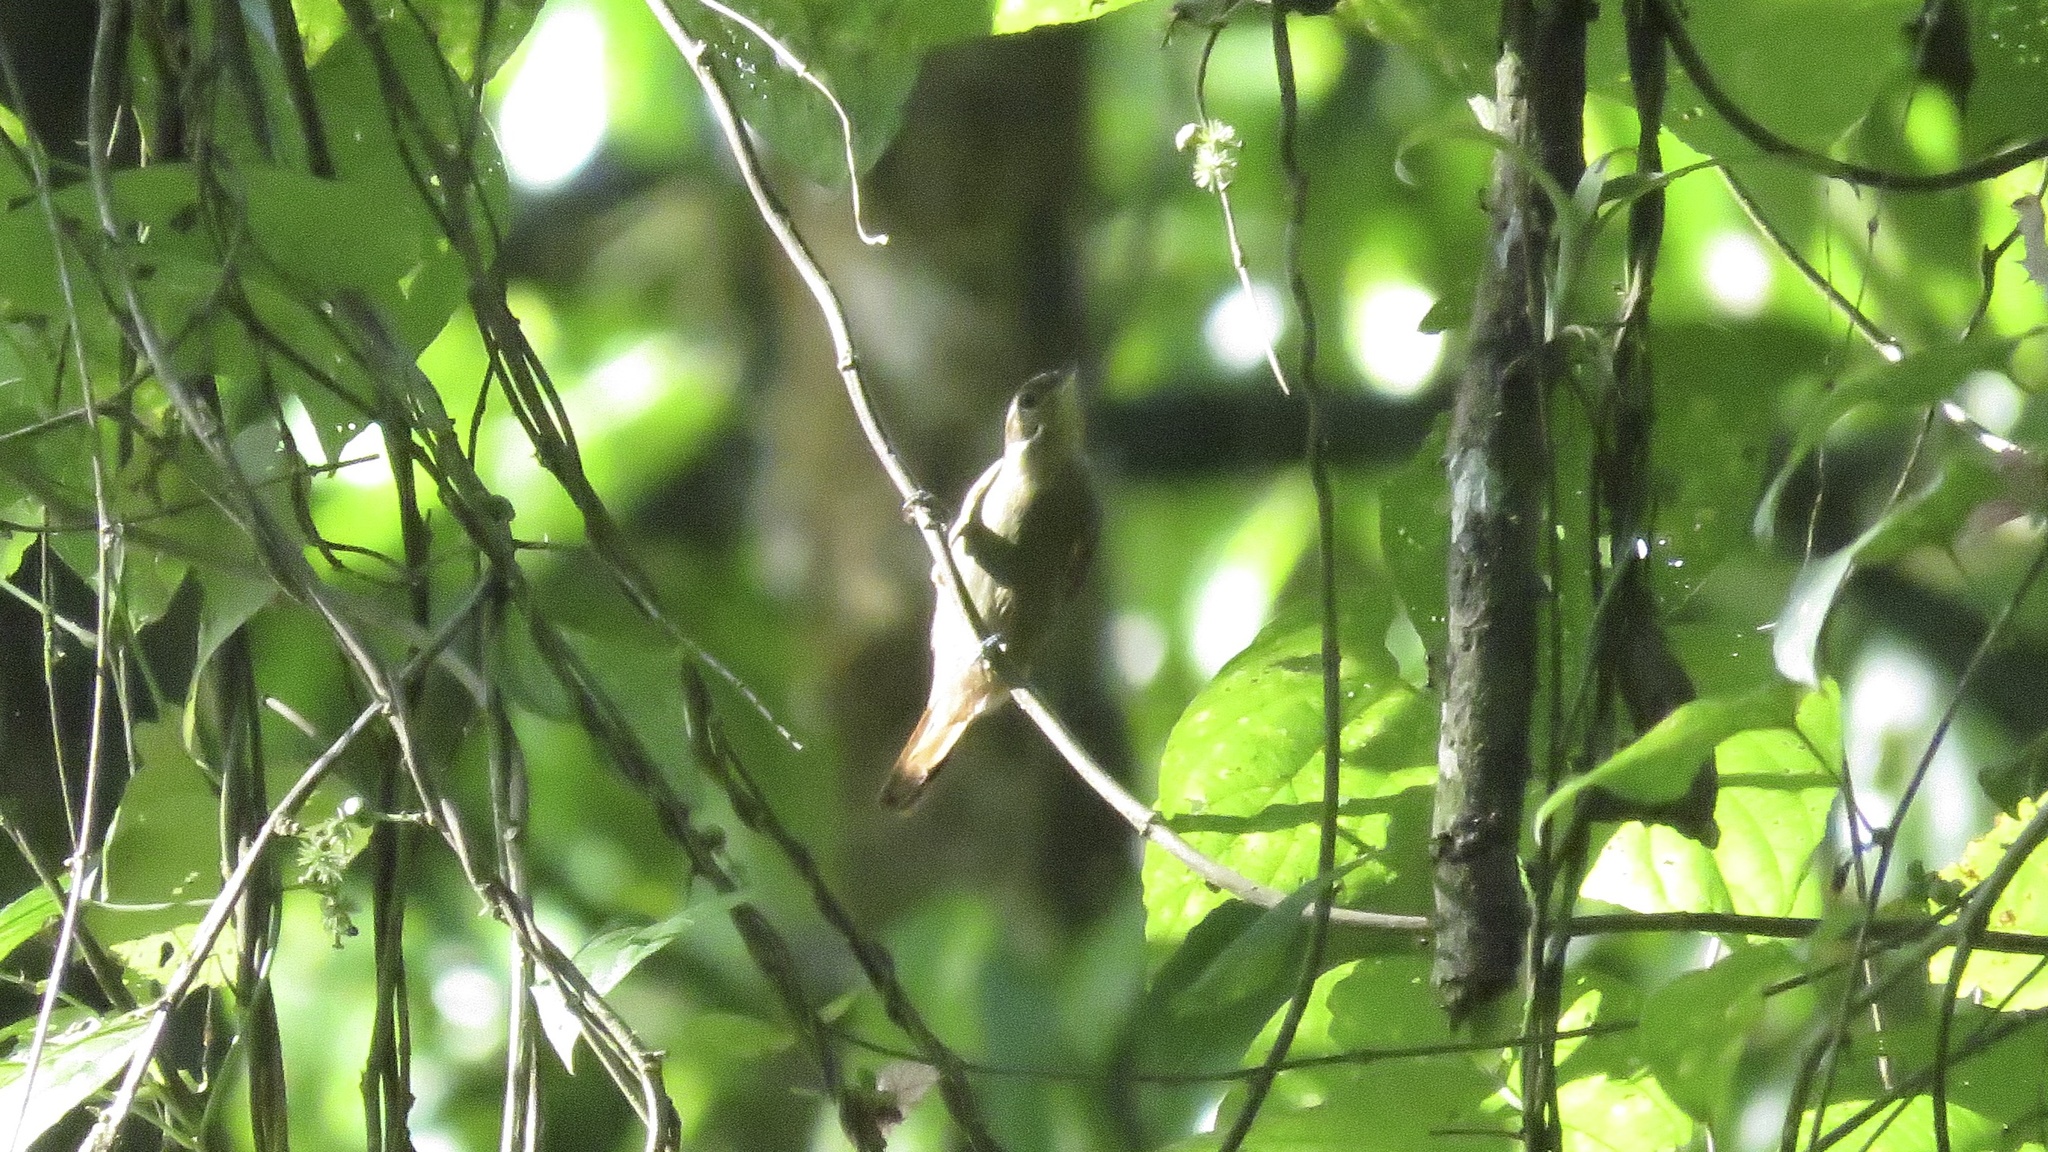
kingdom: Animalia
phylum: Chordata
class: Aves
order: Passeriformes
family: Furnariidae
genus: Xenops
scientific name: Xenops minutus
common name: Plain xenops
